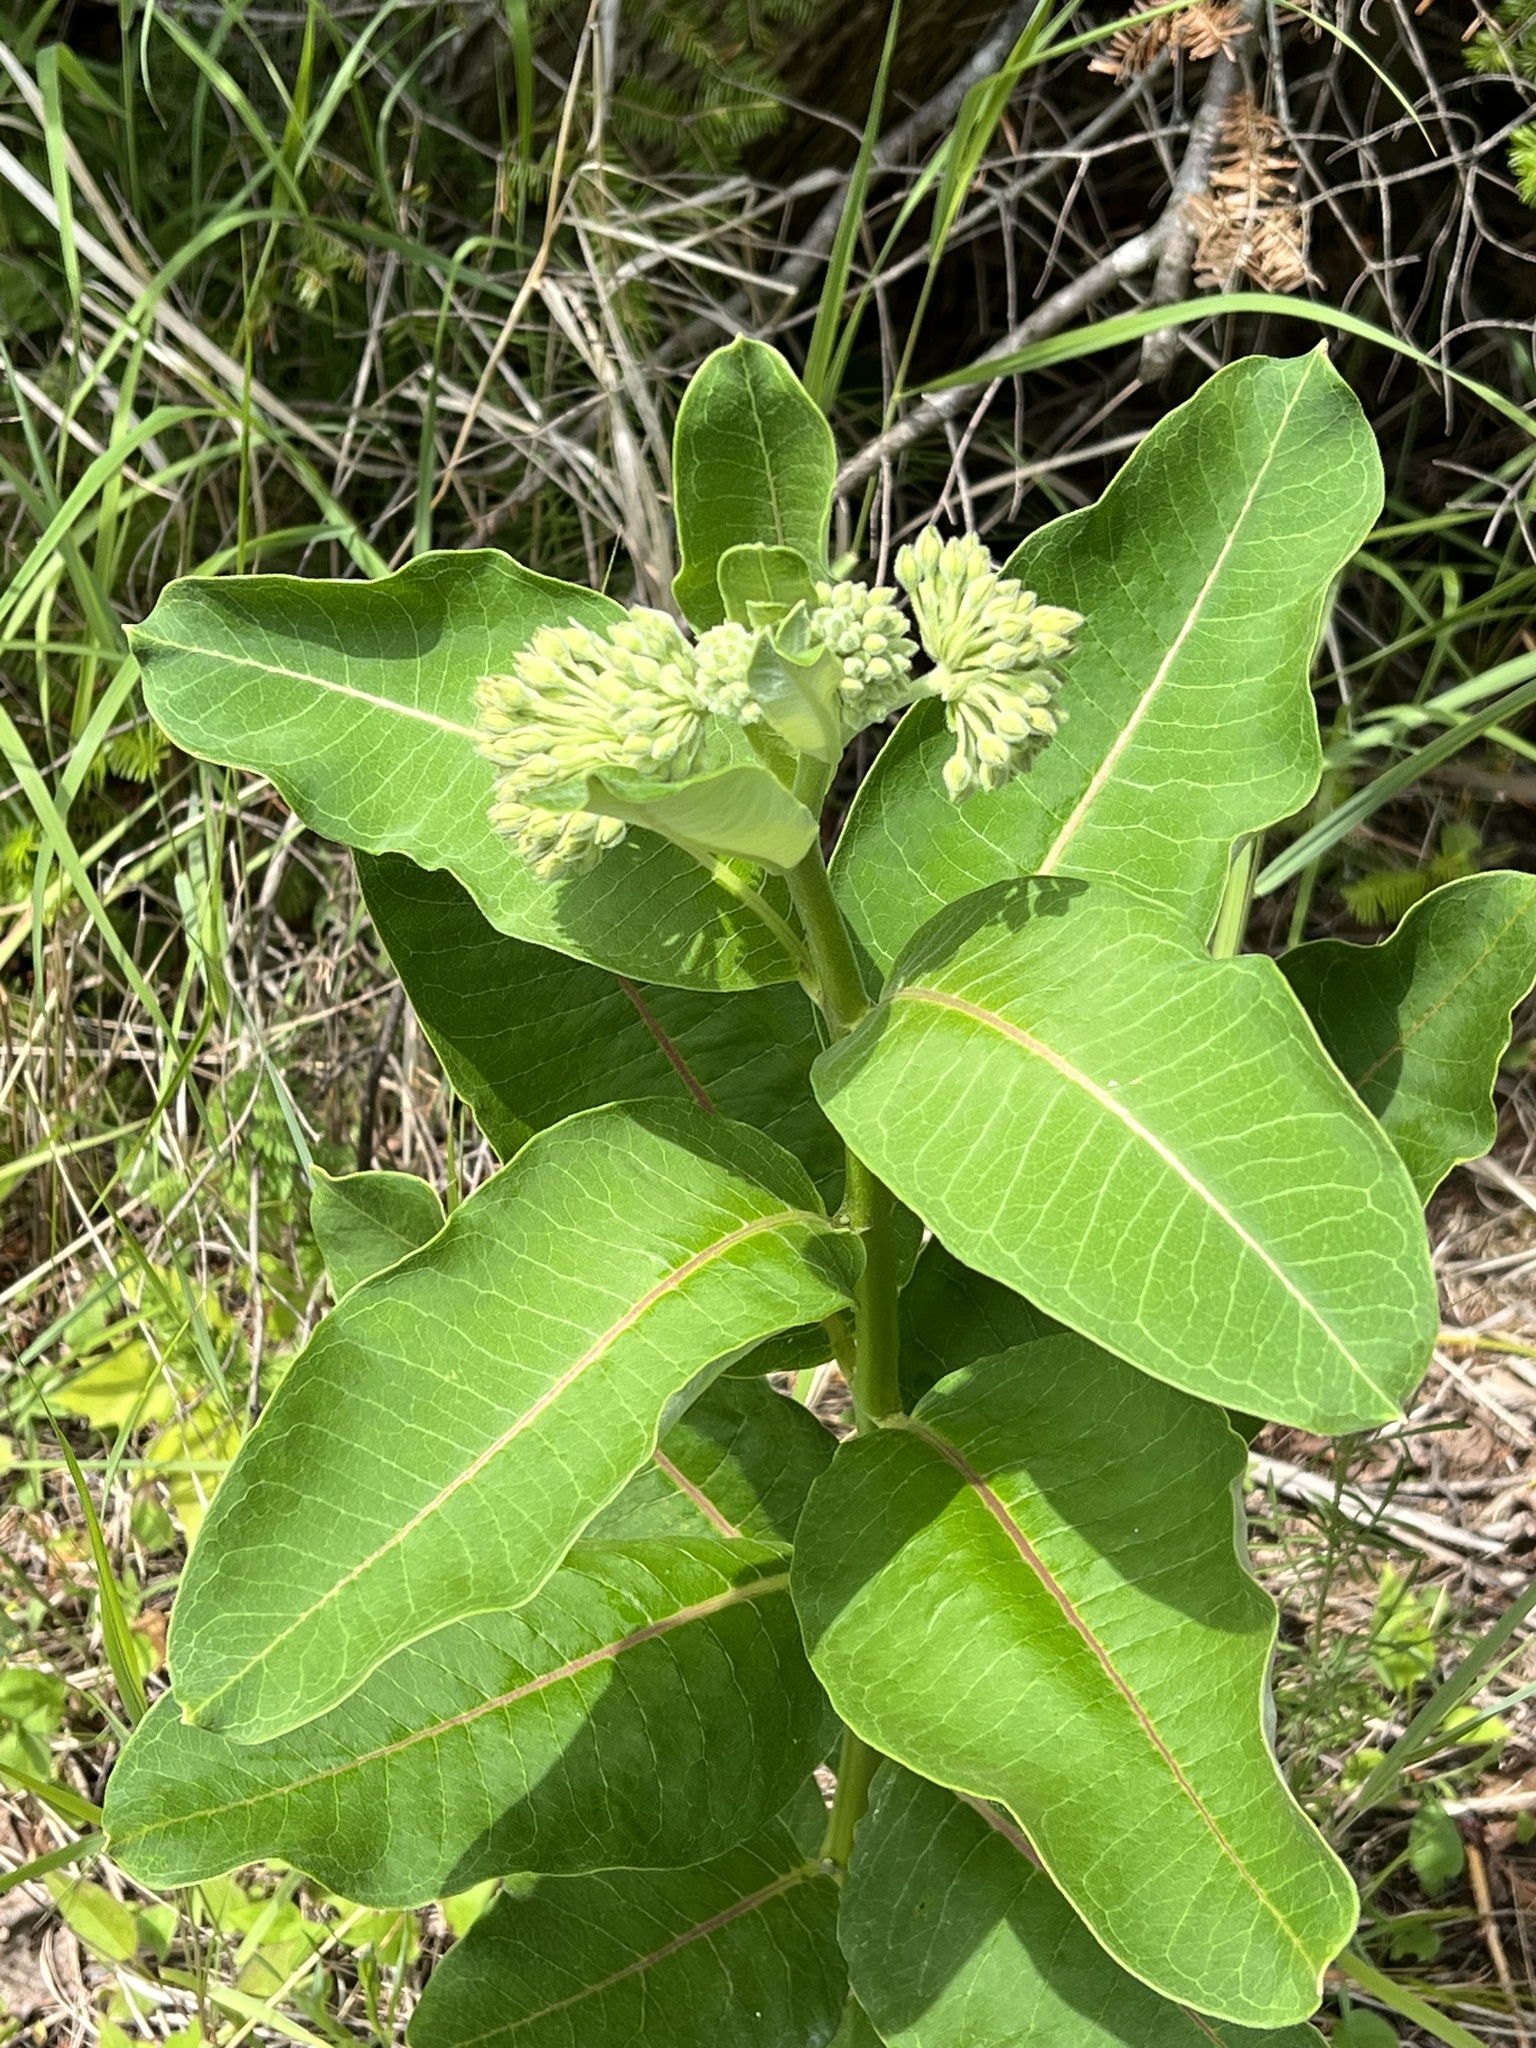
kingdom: Plantae
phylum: Tracheophyta
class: Magnoliopsida
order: Gentianales
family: Apocynaceae
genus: Asclepias
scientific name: Asclepias syriaca
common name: Common milkweed
